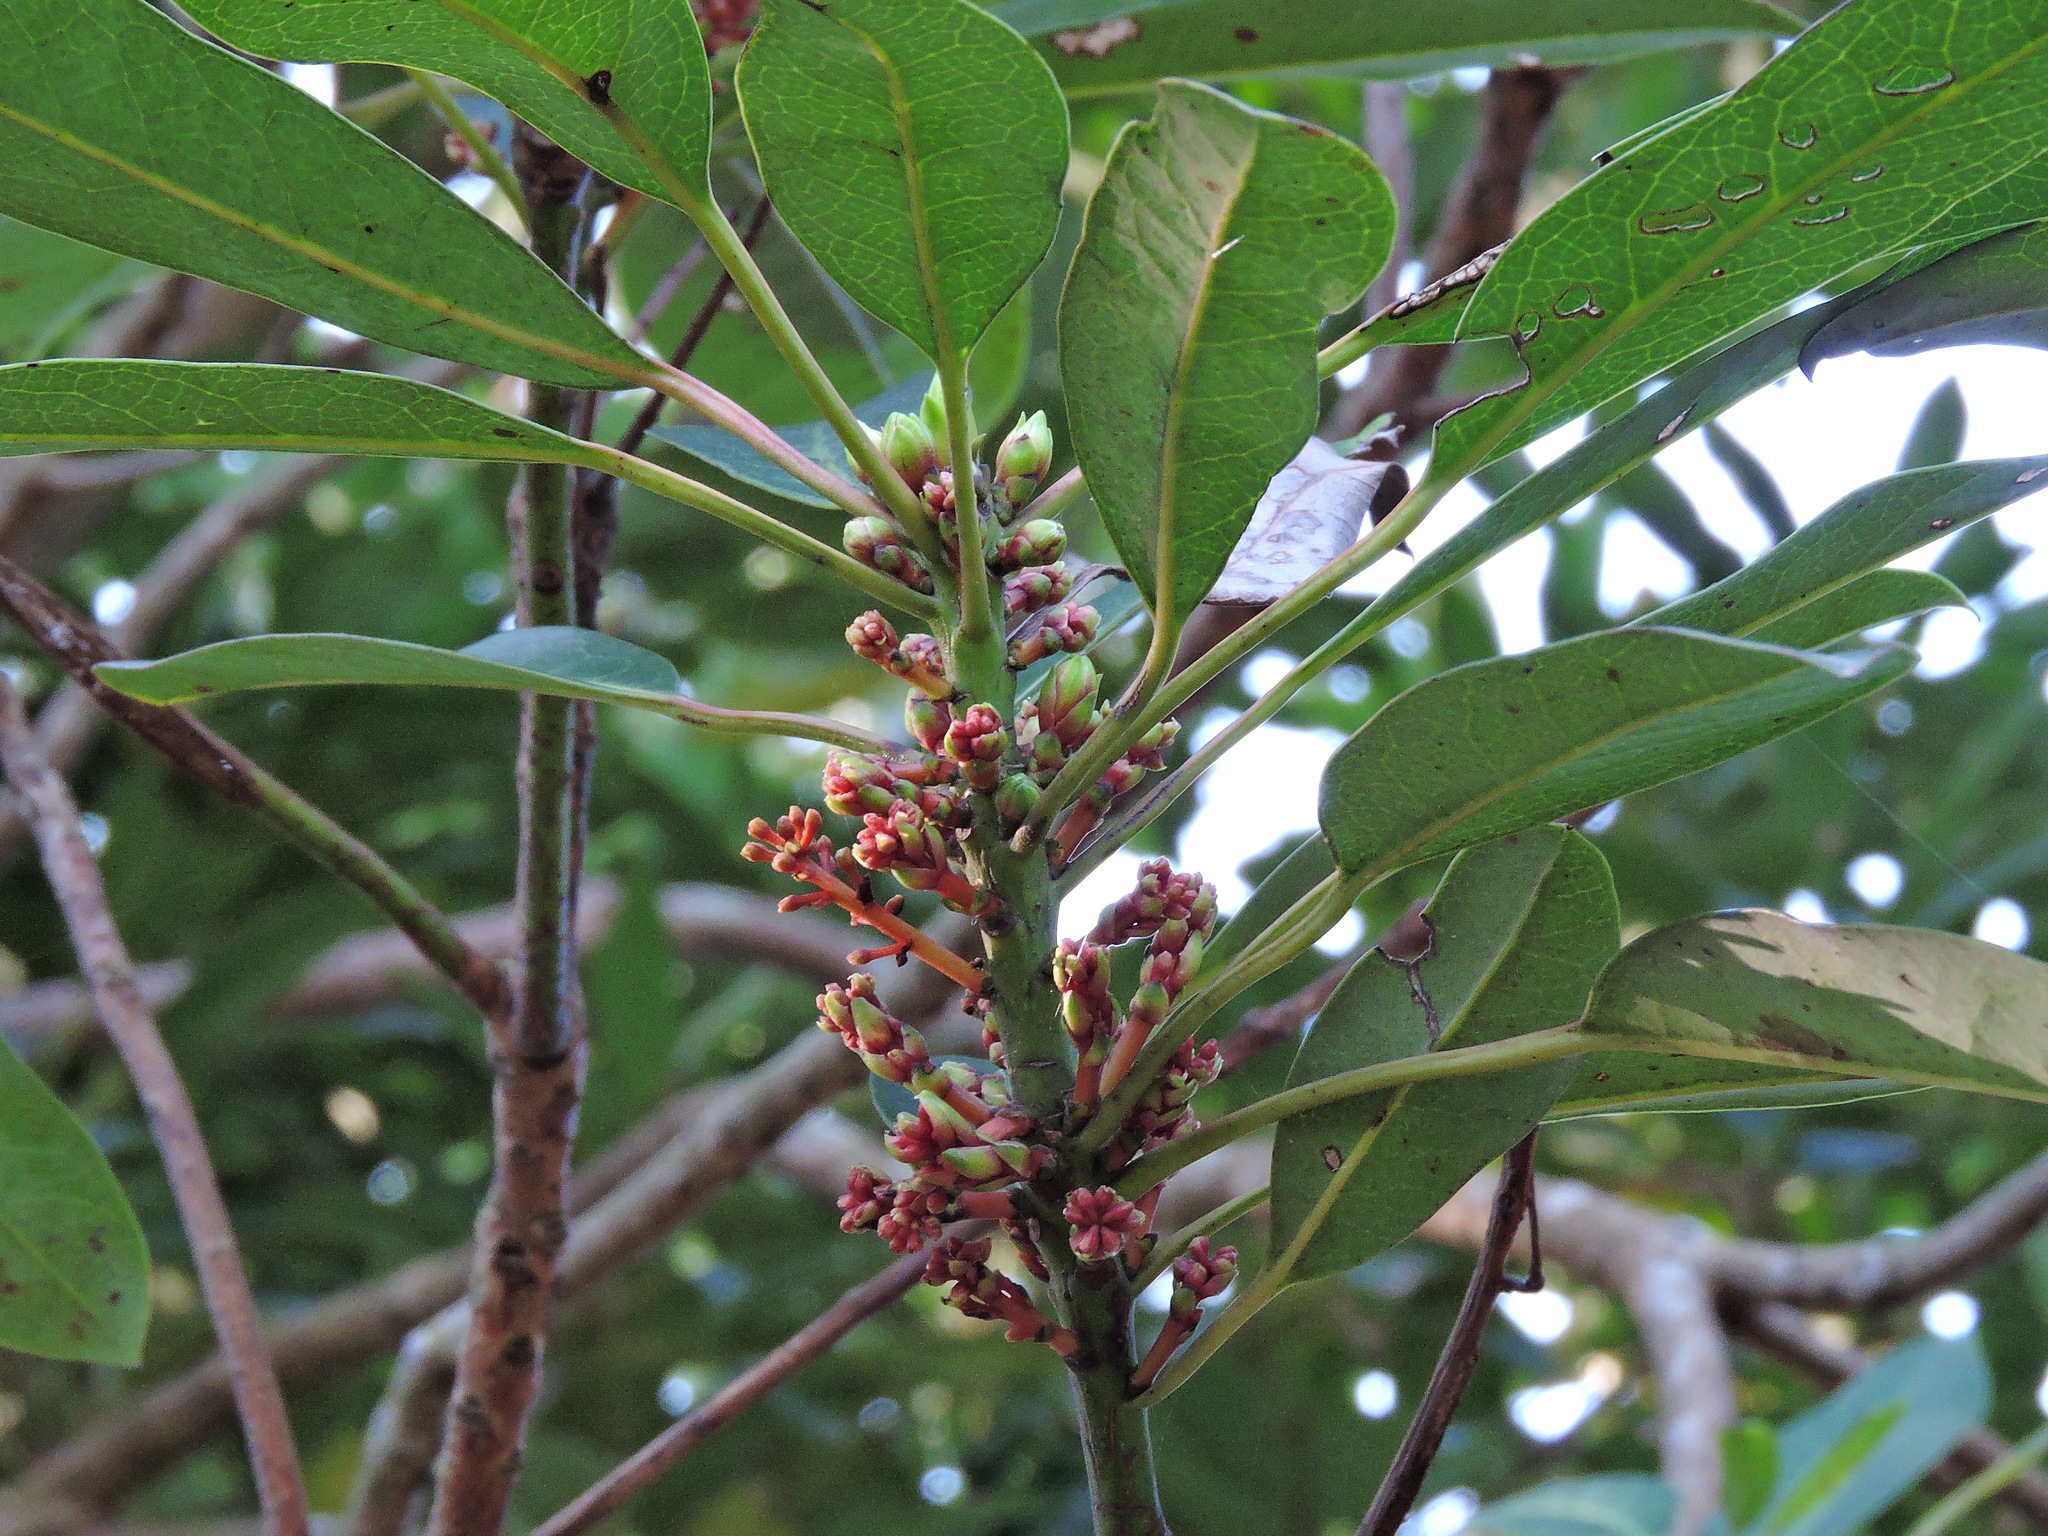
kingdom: Plantae
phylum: Tracheophyta
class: Magnoliopsida
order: Saxifragales
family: Daphniphyllaceae
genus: Daphniphyllum
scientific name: Daphniphyllum pentandrum
